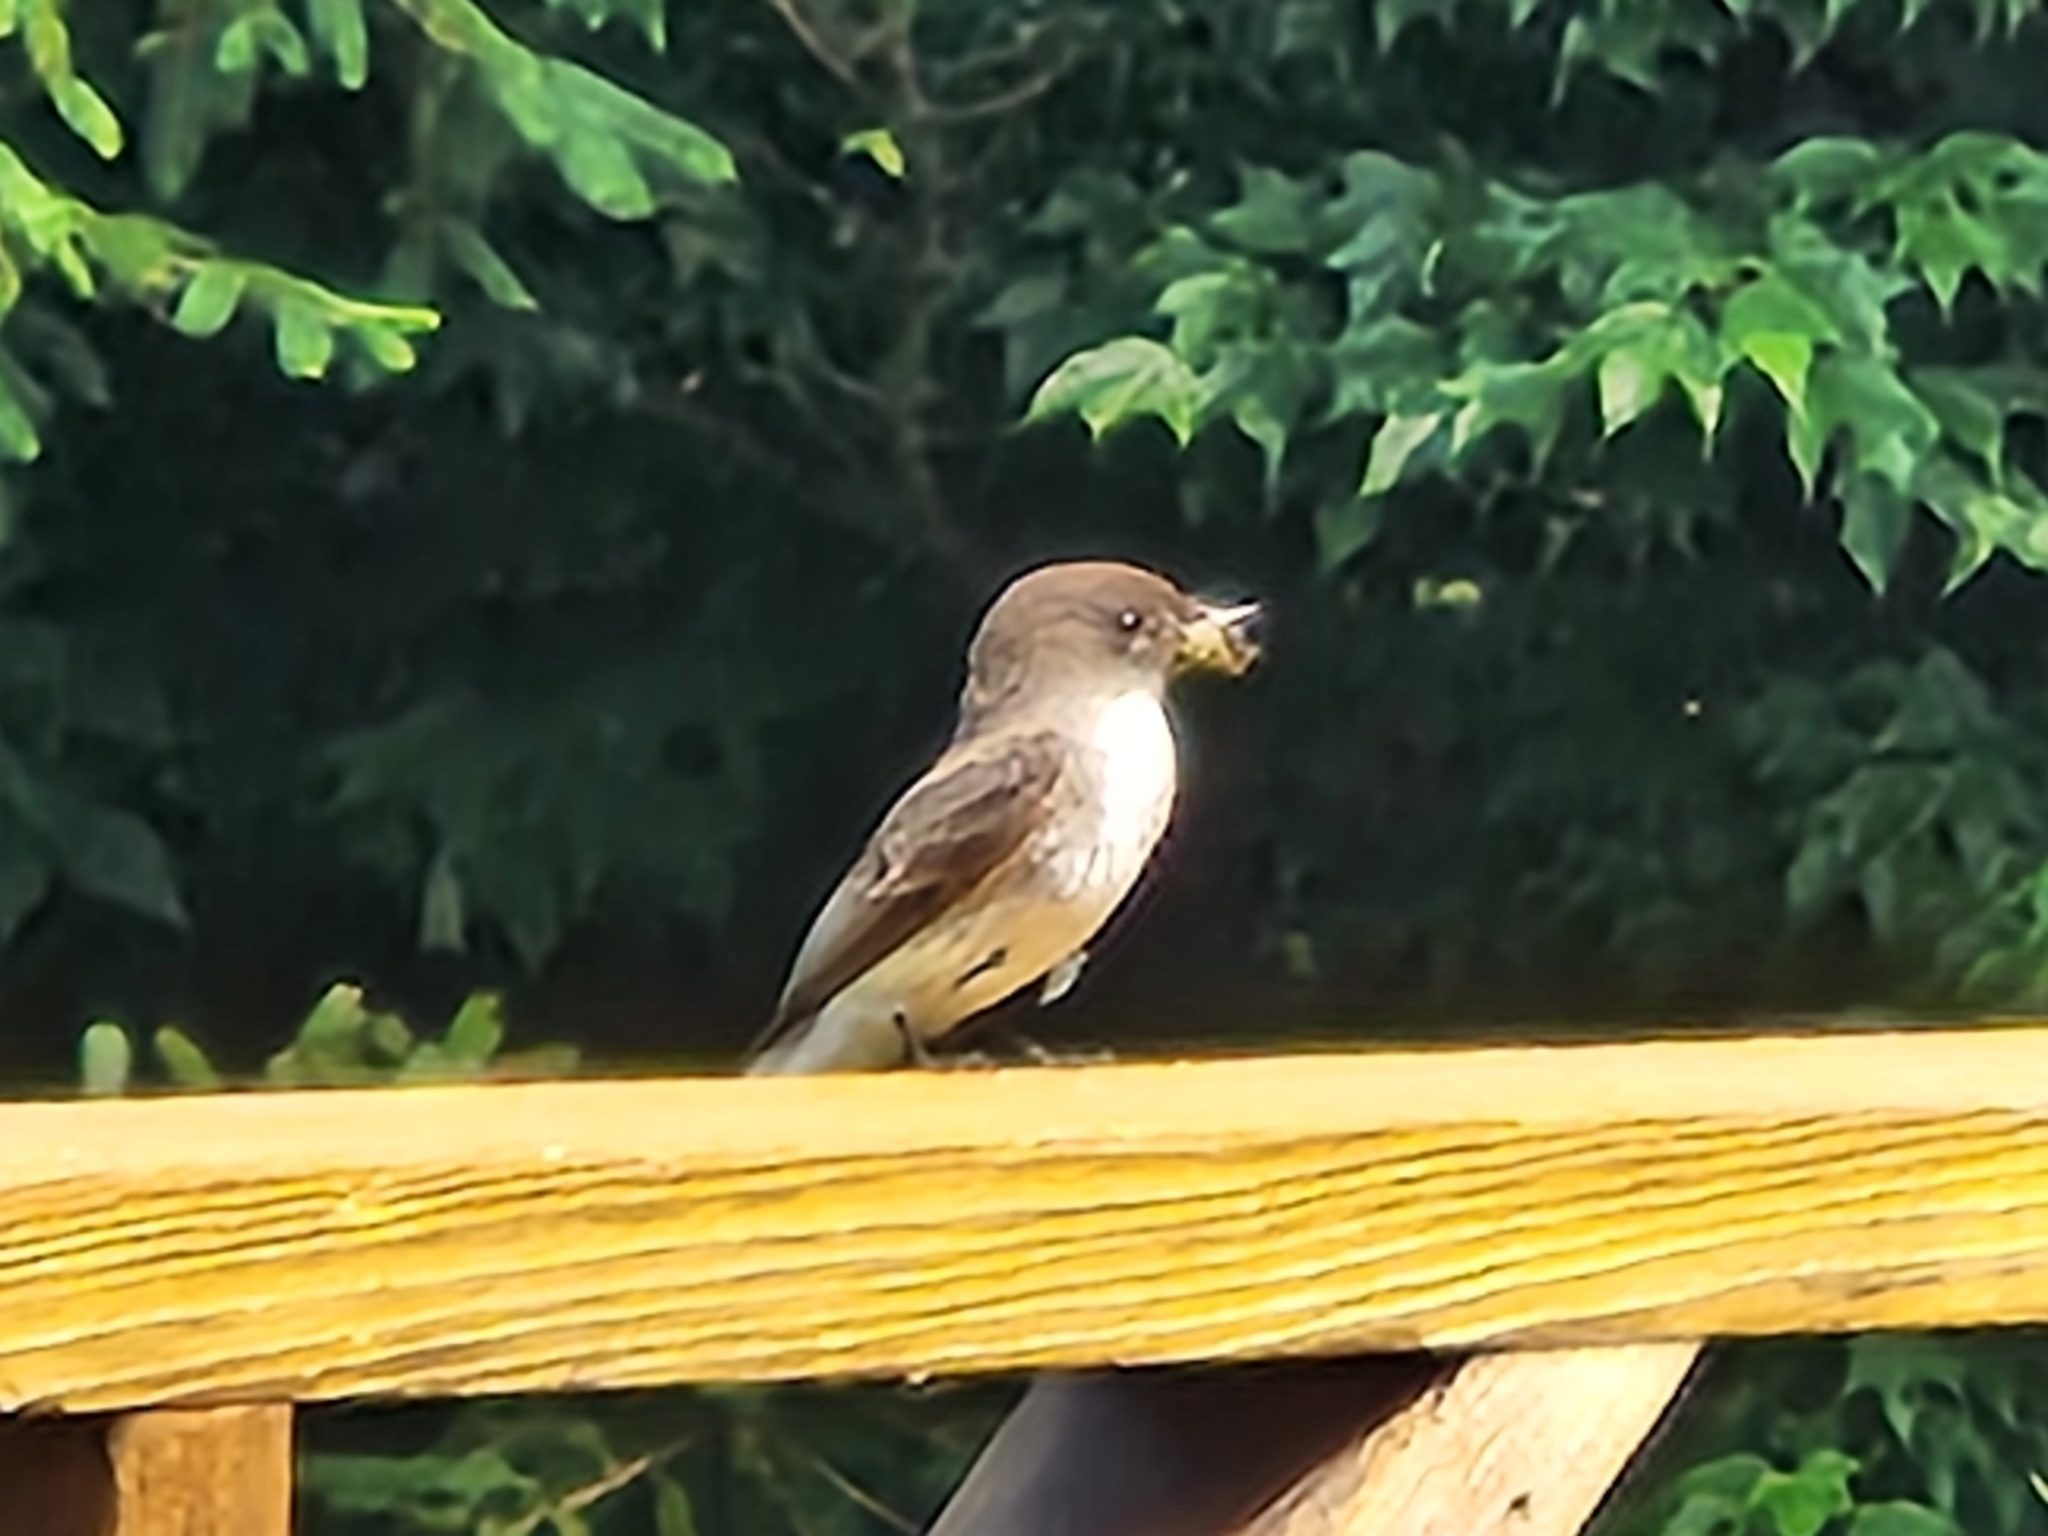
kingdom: Animalia
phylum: Chordata
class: Aves
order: Passeriformes
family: Tyrannidae
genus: Sayornis
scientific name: Sayornis phoebe
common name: Eastern phoebe
